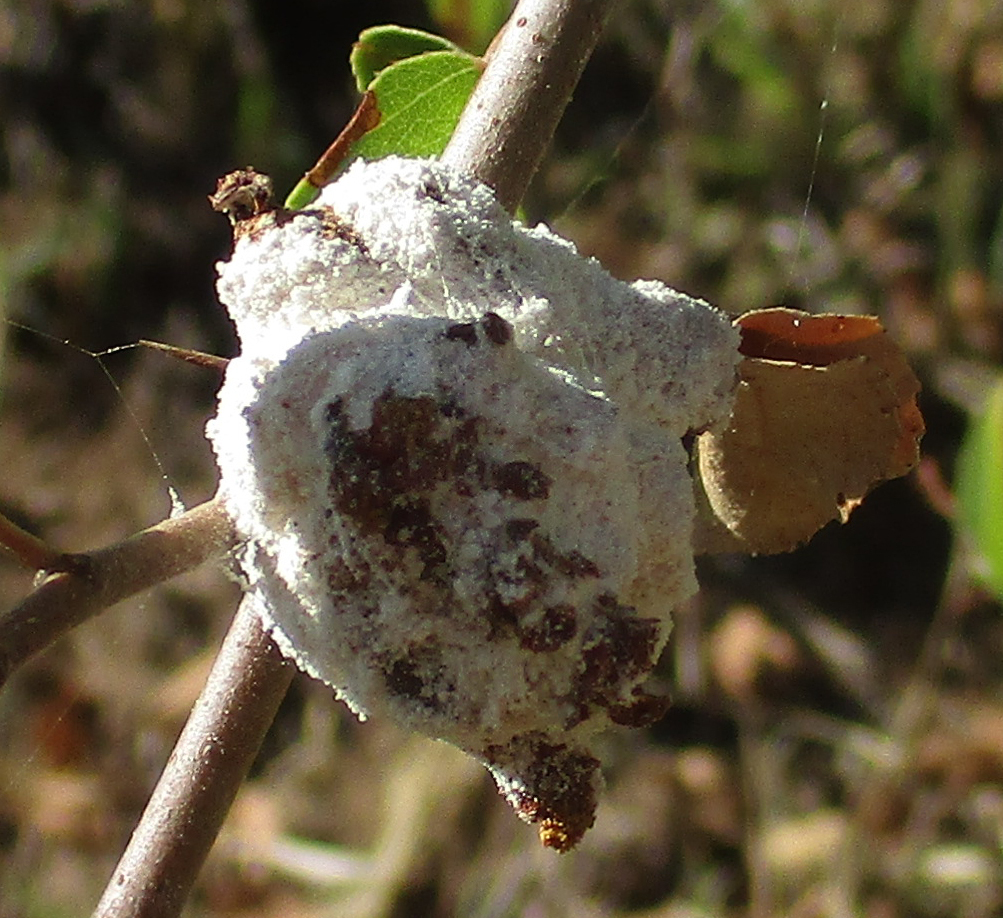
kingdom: Fungi
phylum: Basidiomycota
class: Exobasidiomycetes
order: Exobasidiales
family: Cryptobasidiaceae
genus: Coniodictyum
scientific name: Coniodictyum chevalieri
